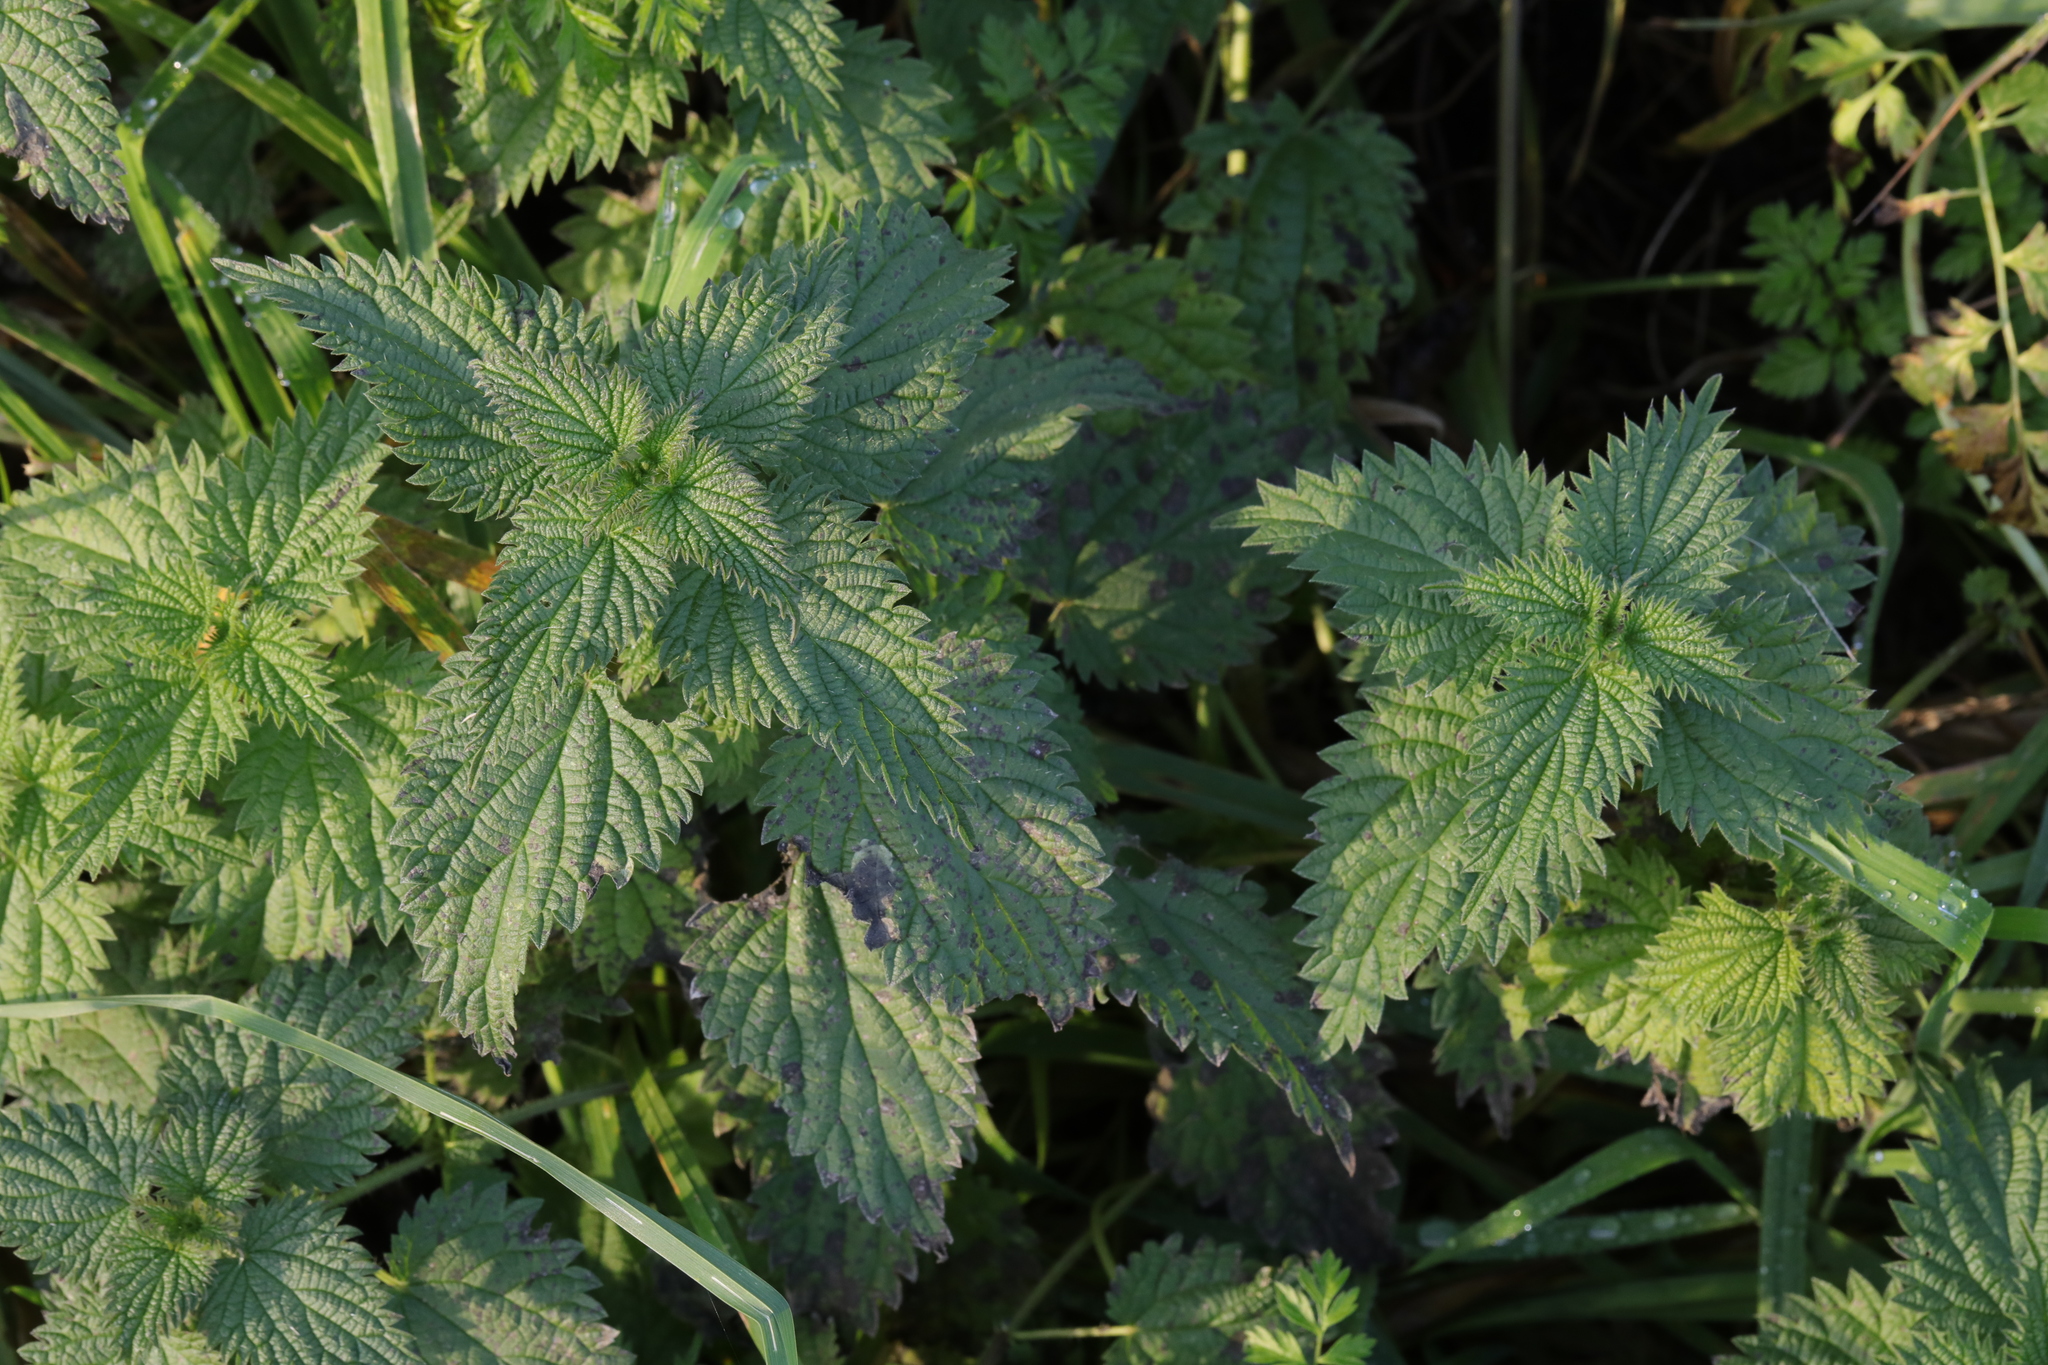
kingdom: Plantae
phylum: Tracheophyta
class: Magnoliopsida
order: Rosales
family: Urticaceae
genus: Urtica
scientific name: Urtica dioica
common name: Common nettle
